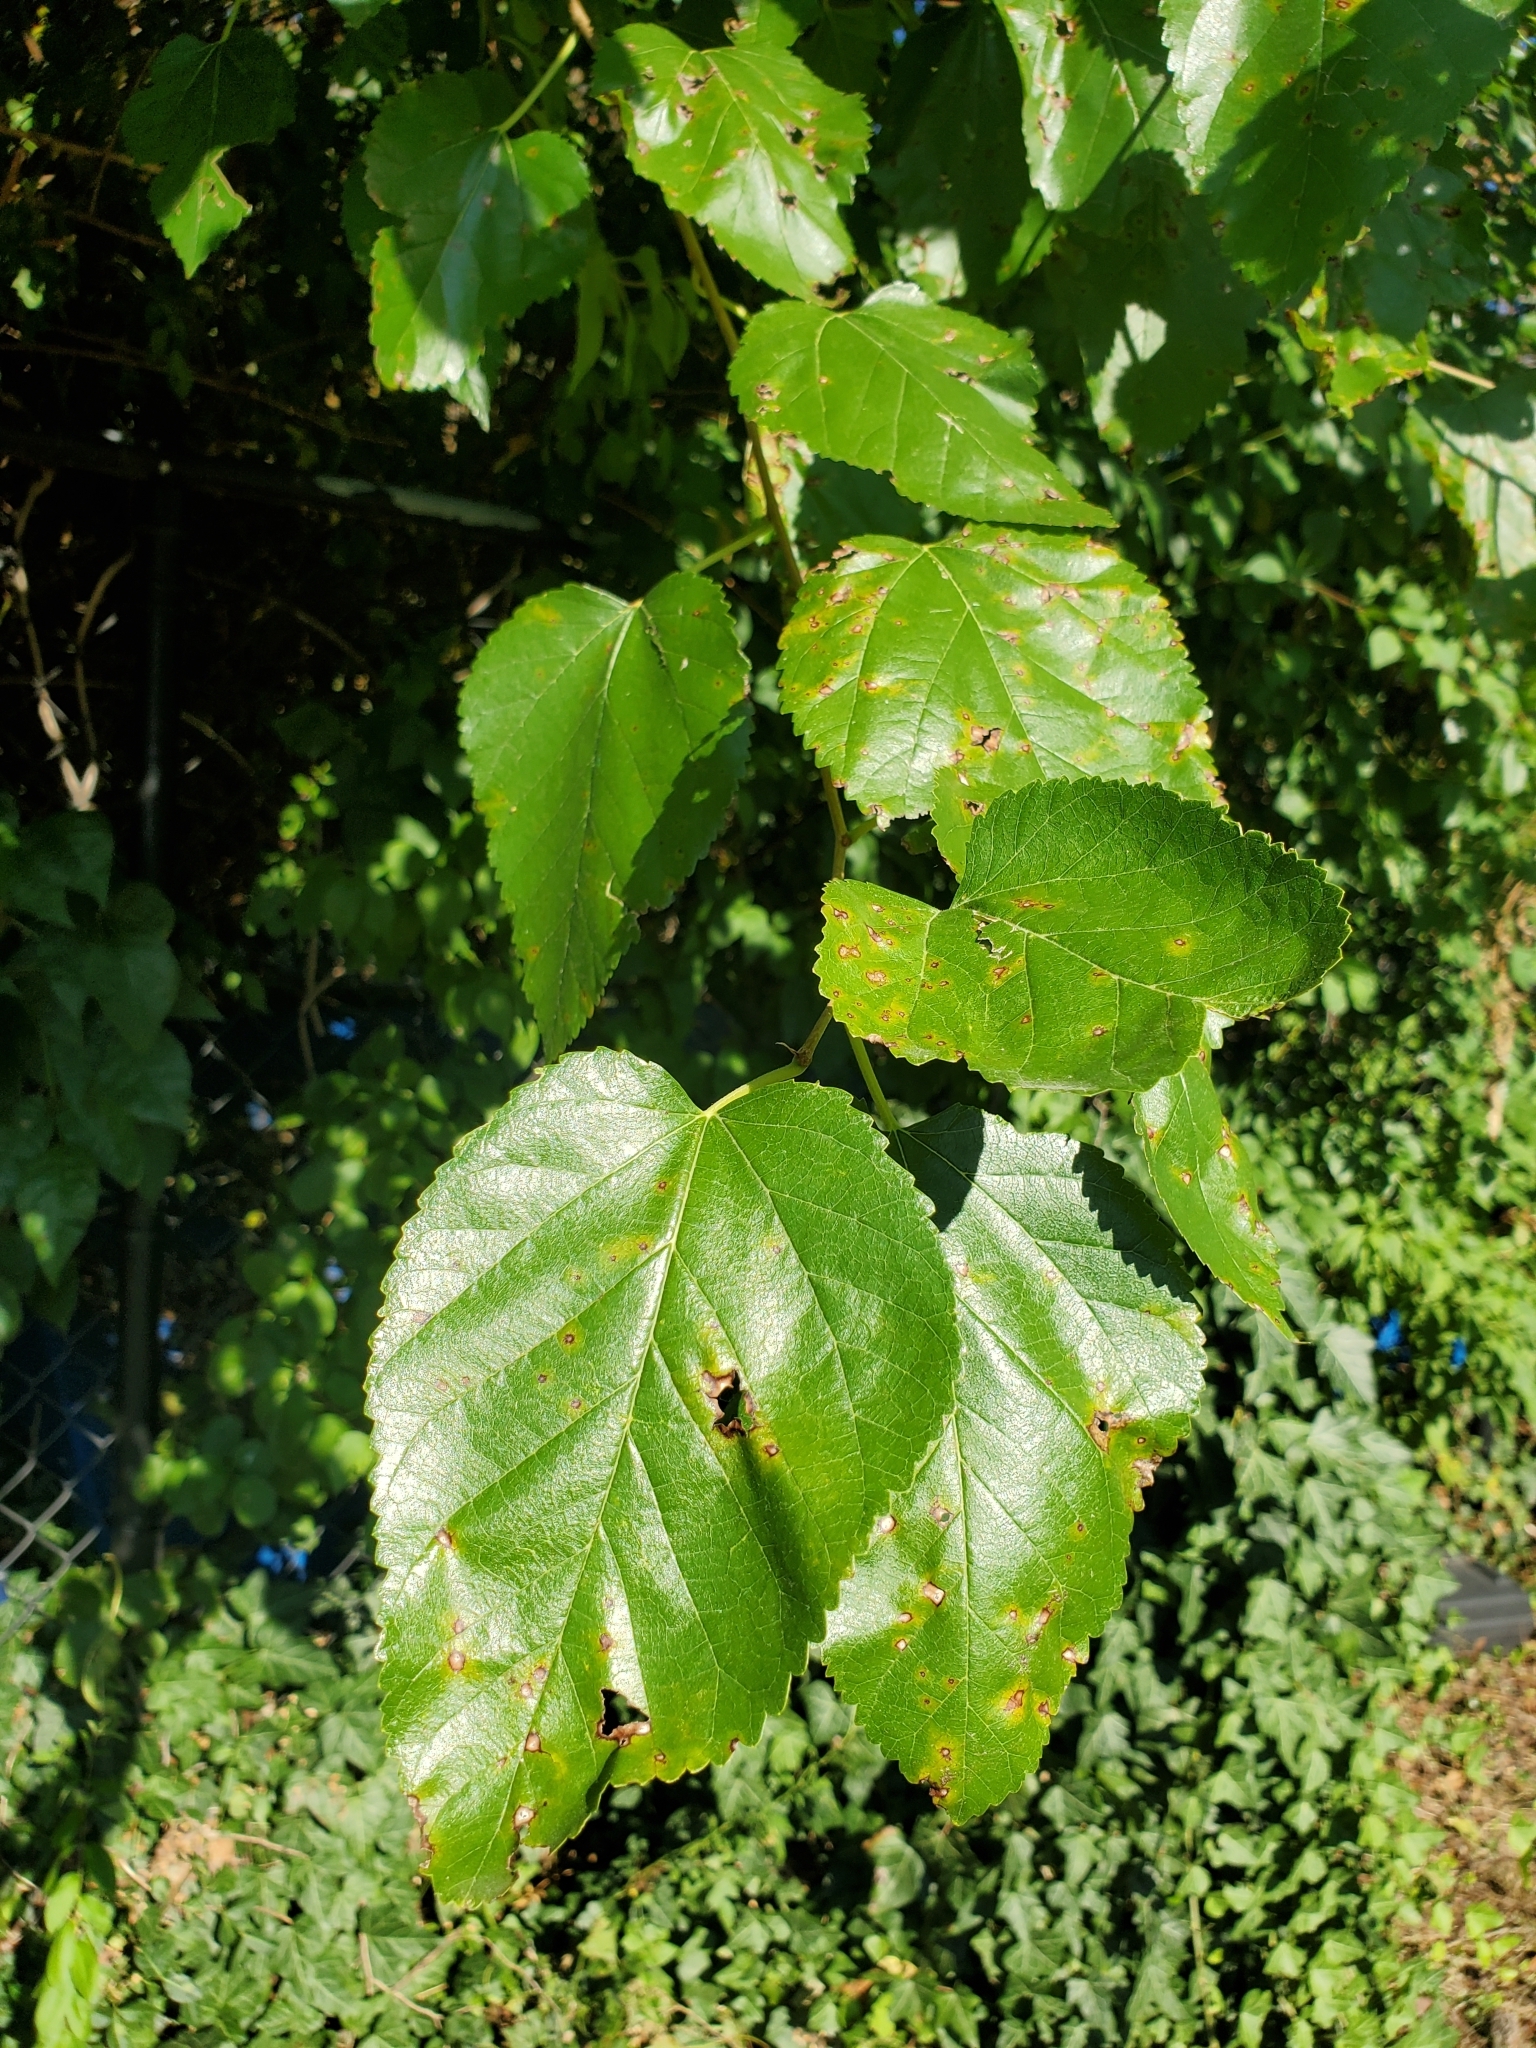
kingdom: Plantae
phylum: Tracheophyta
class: Magnoliopsida
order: Rosales
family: Moraceae
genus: Morus
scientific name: Morus alba
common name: White mulberry
